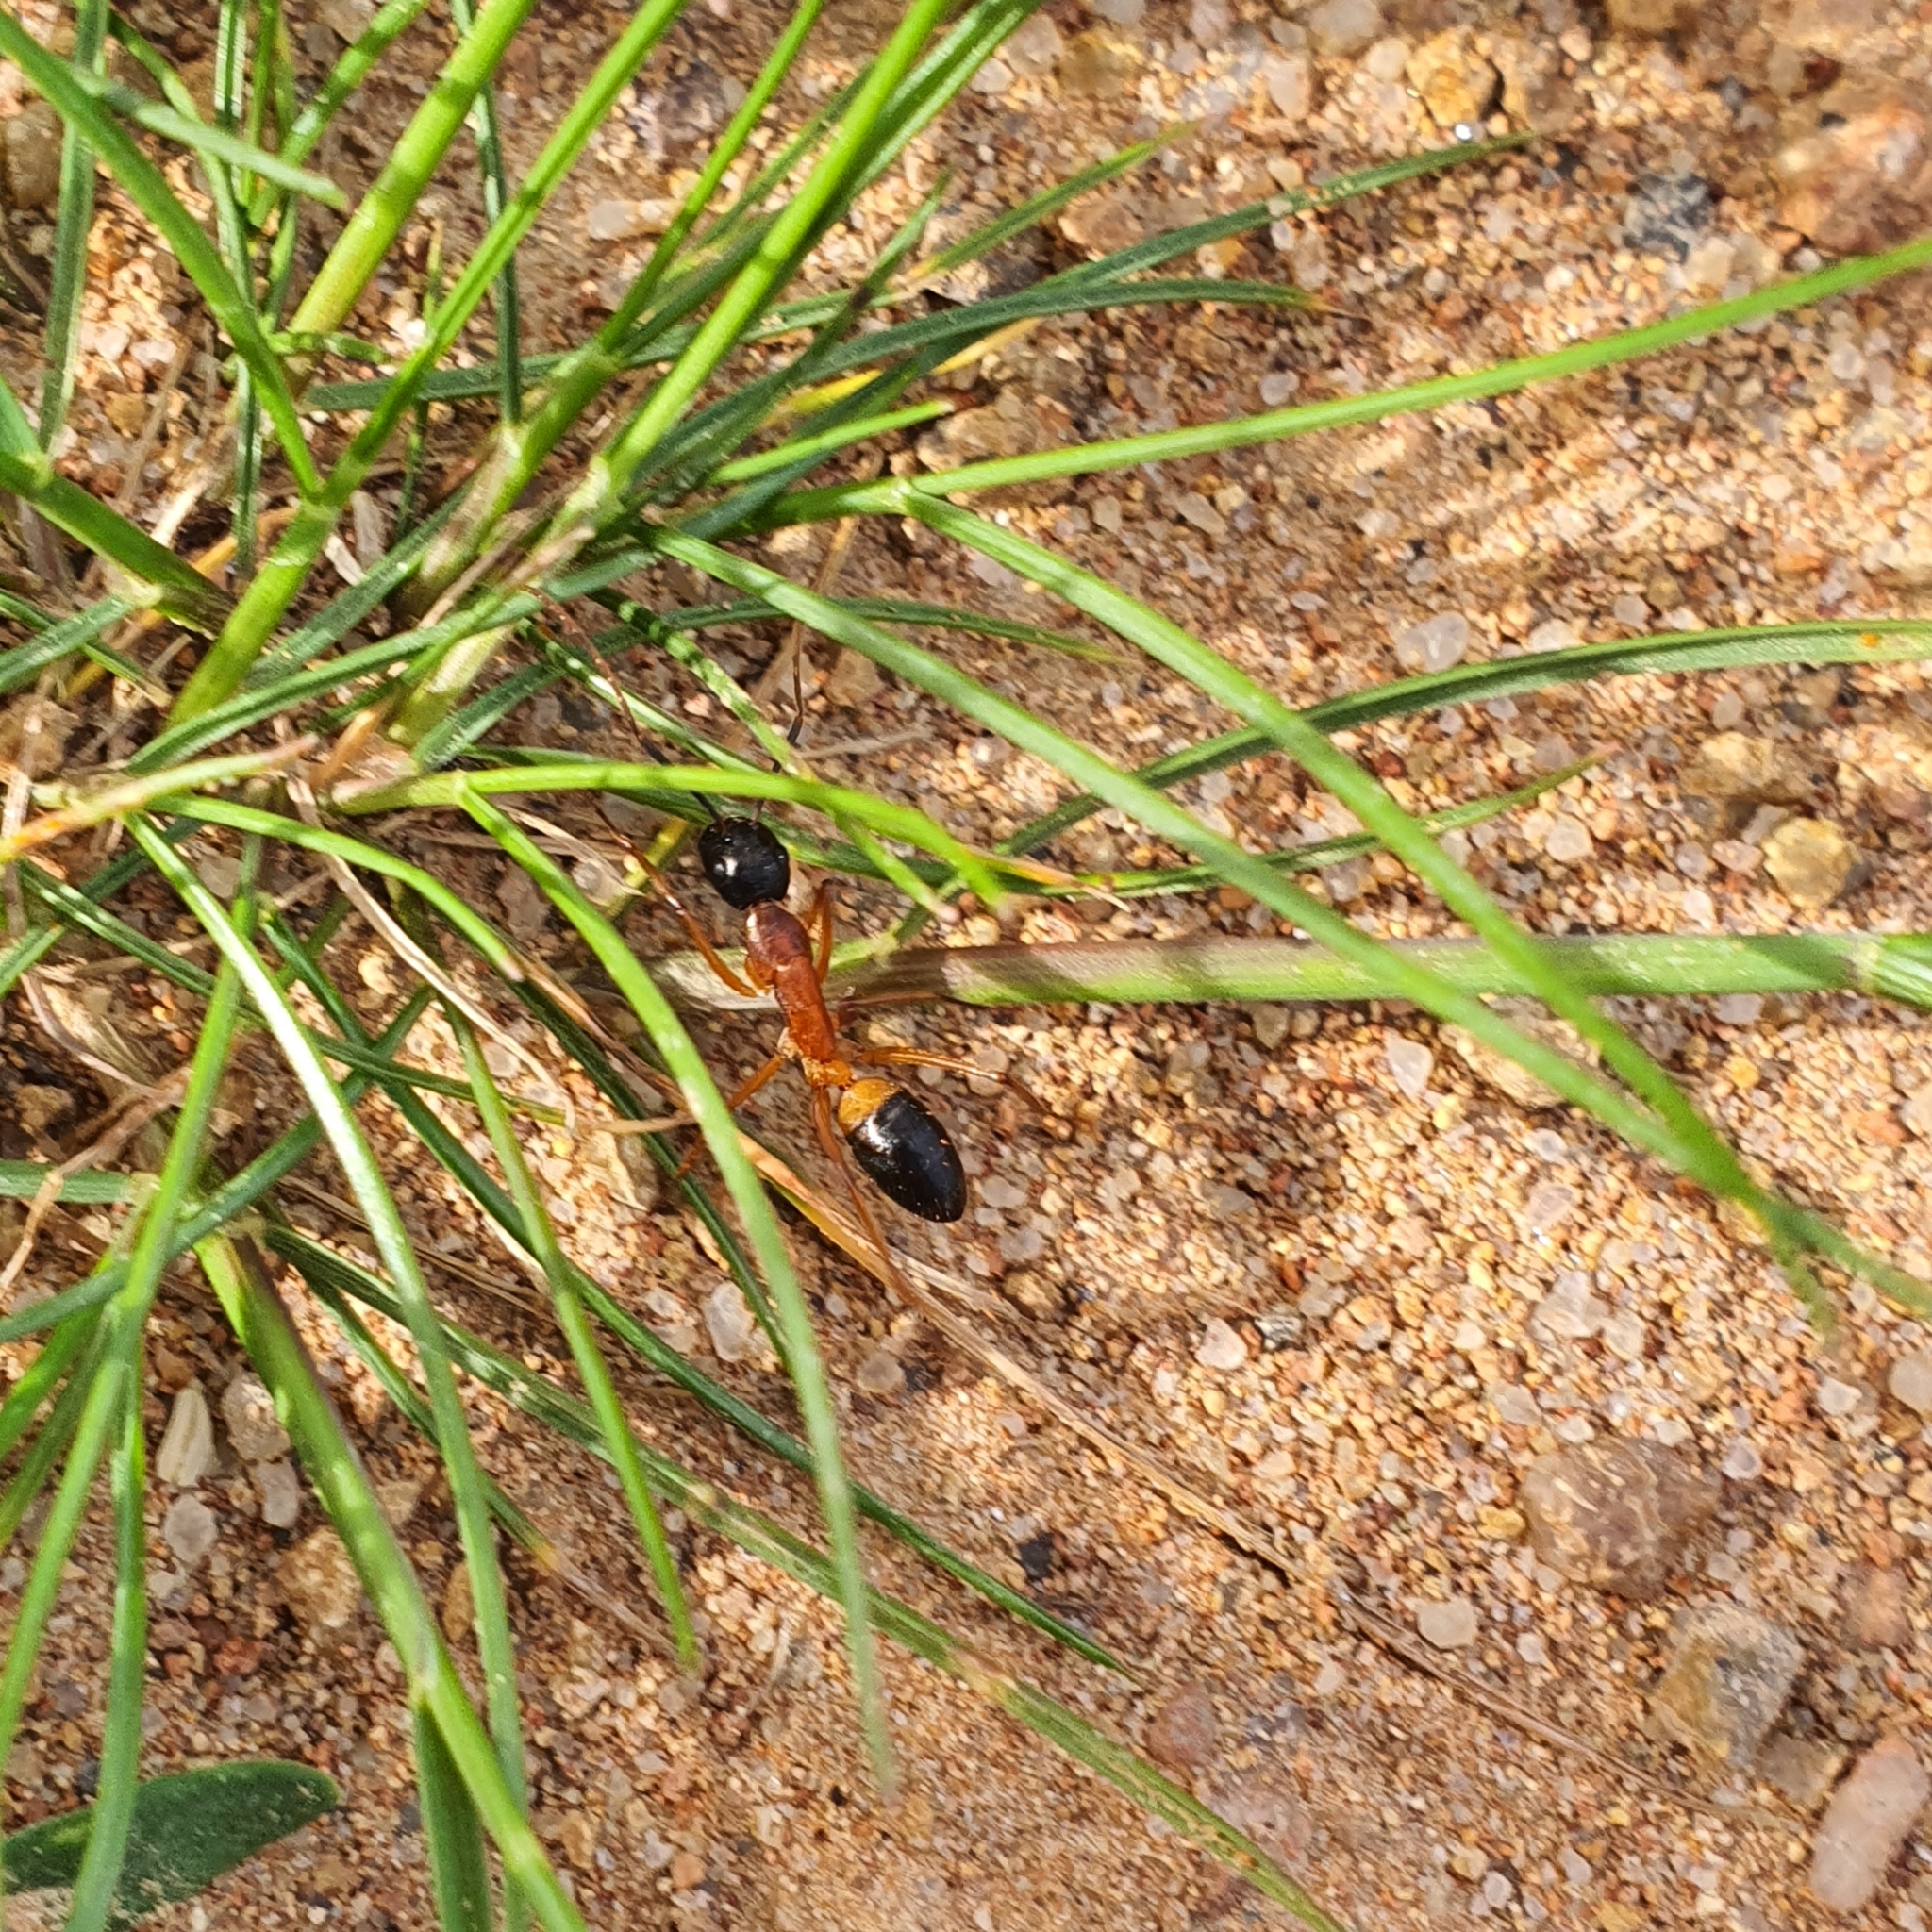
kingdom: Animalia
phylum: Arthropoda
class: Insecta
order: Hymenoptera
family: Formicidae
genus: Camponotus
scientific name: Camponotus consobrinus
